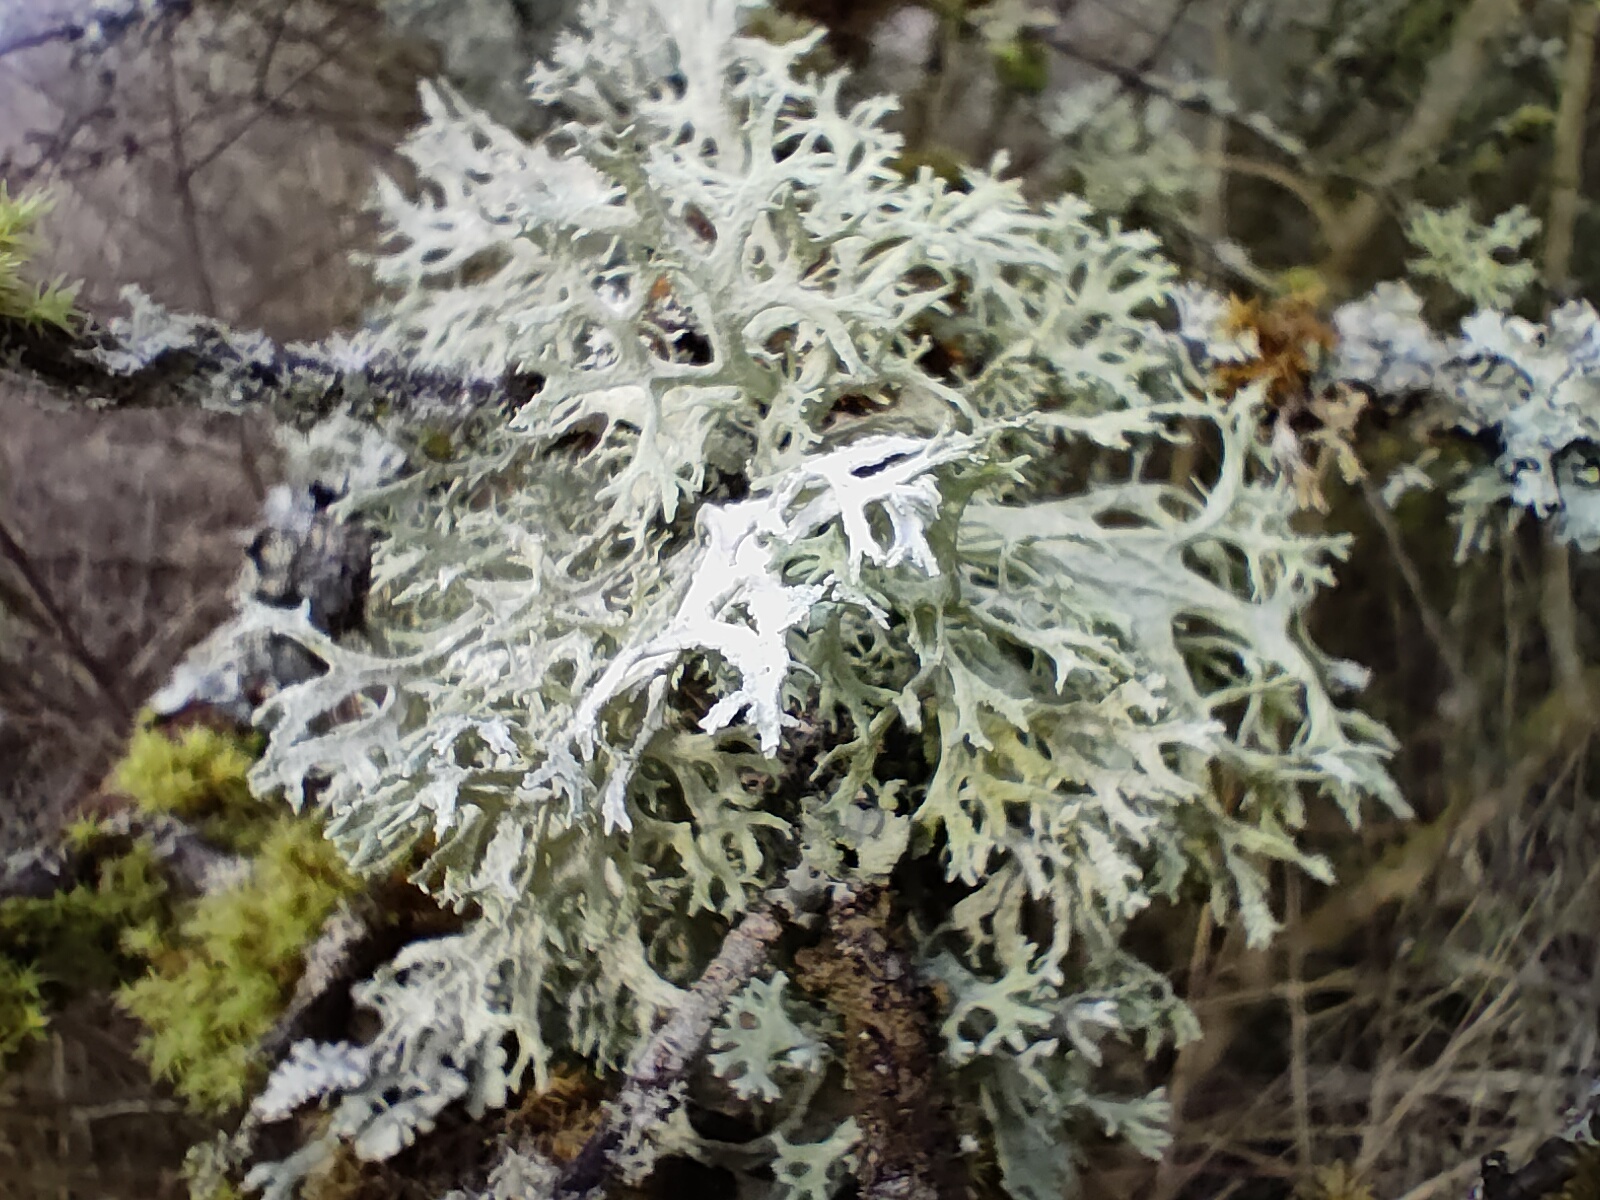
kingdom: Fungi
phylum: Ascomycota
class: Lecanoromycetes
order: Lecanorales
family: Parmeliaceae
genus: Evernia
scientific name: Evernia prunastri
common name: Oak moss
